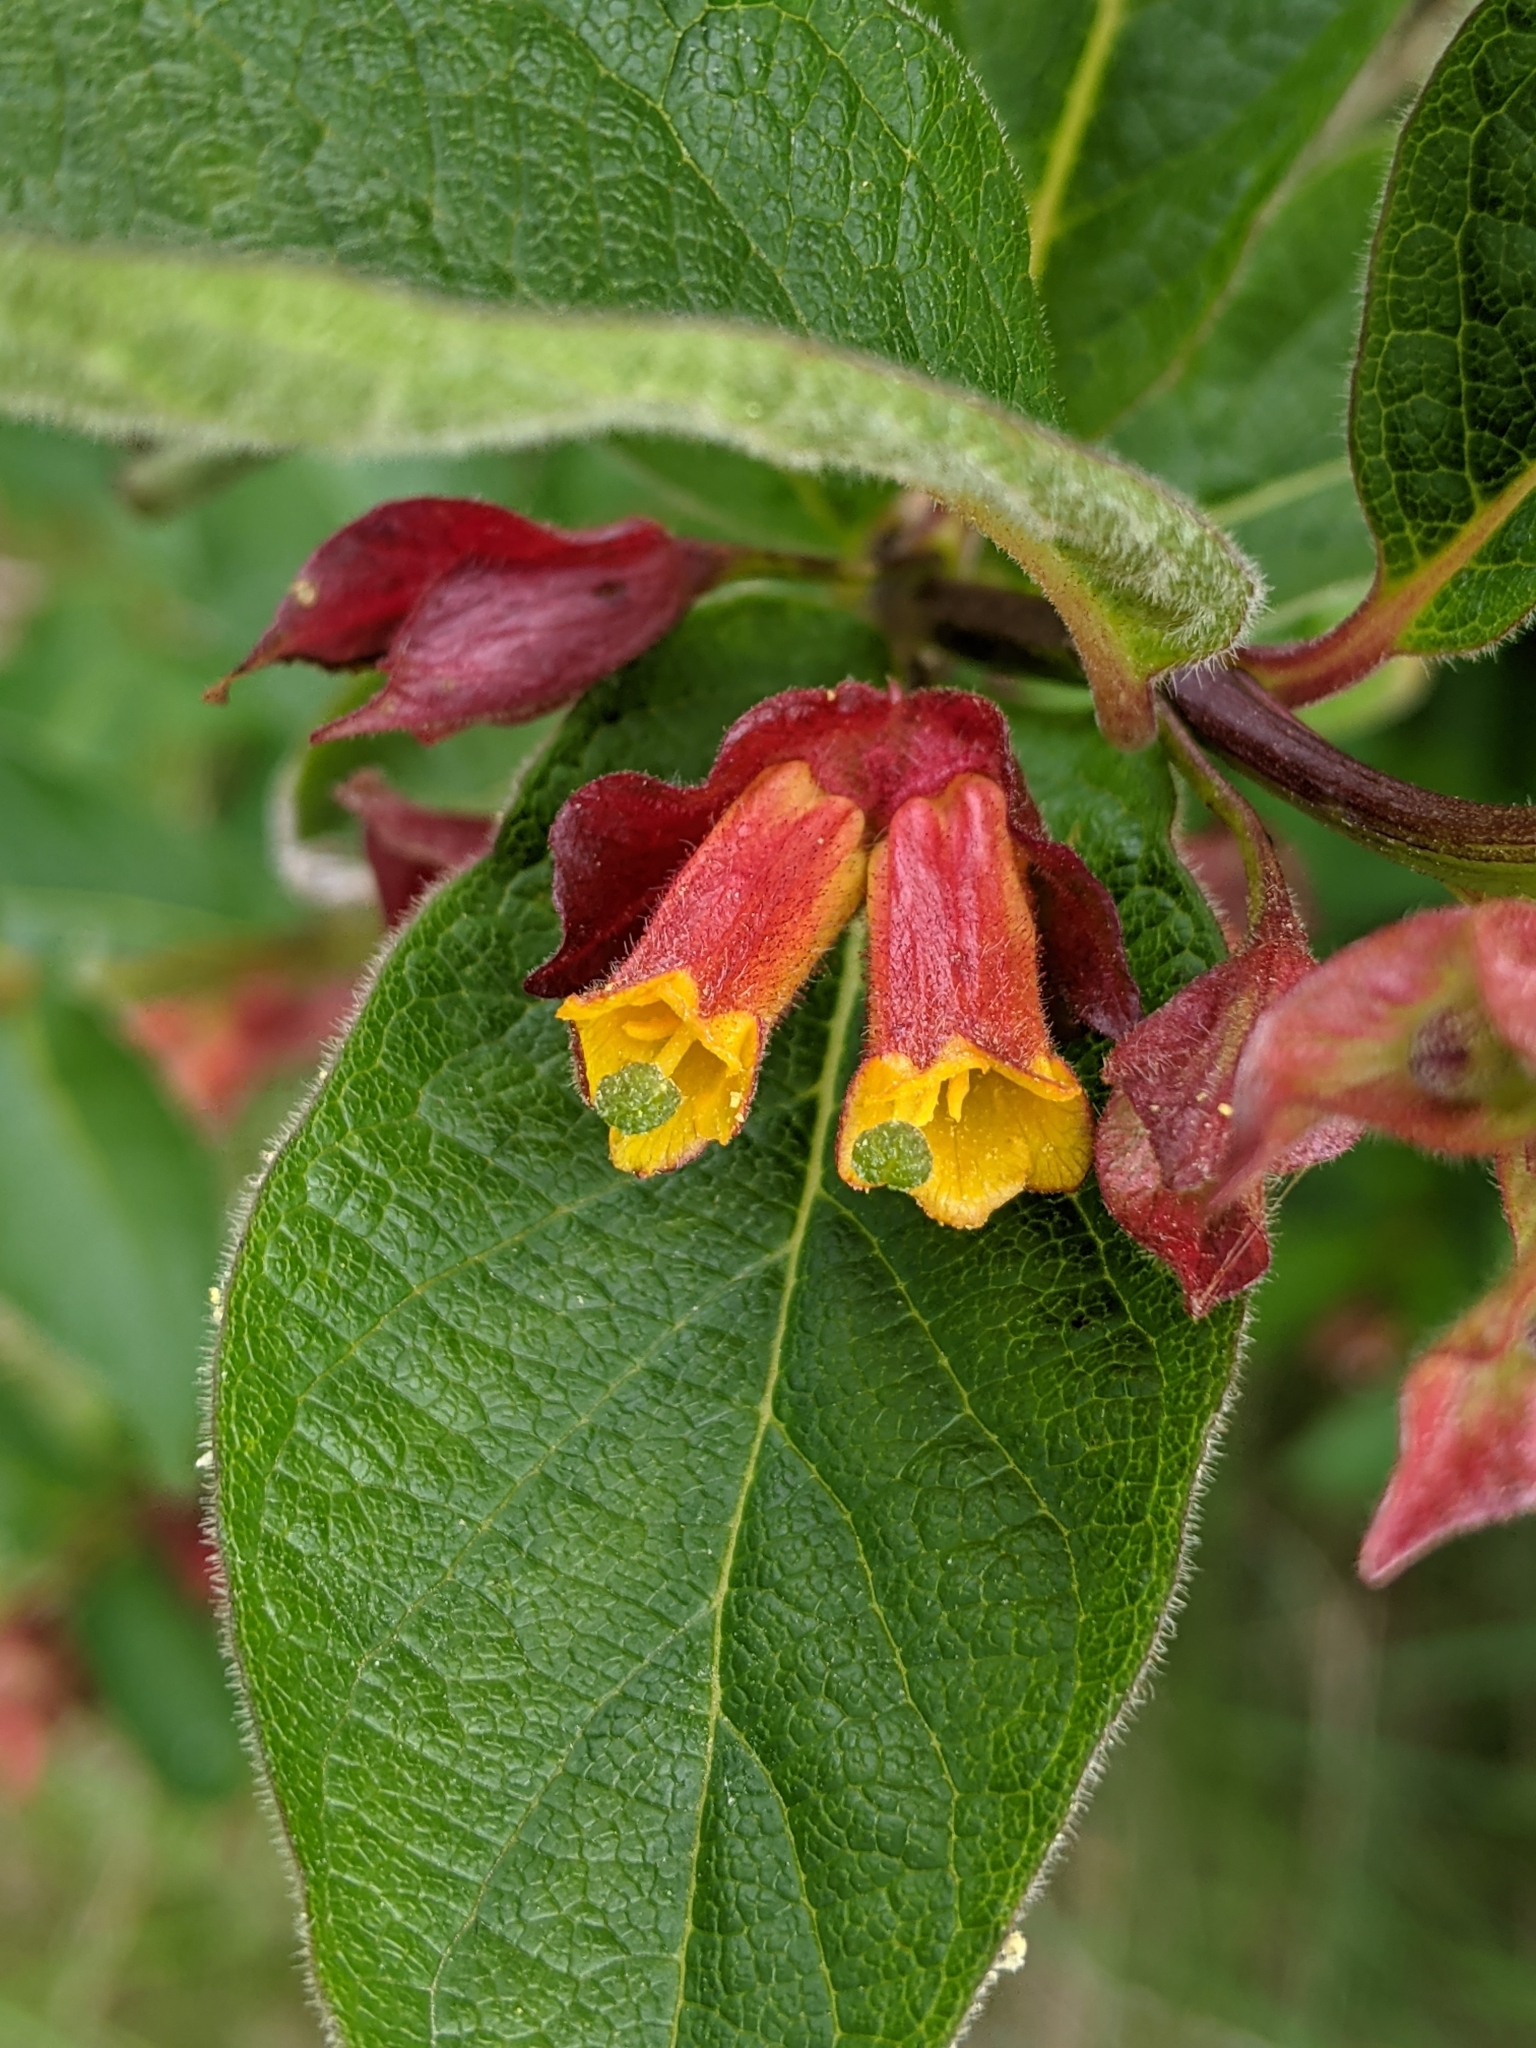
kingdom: Plantae
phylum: Tracheophyta
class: Magnoliopsida
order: Dipsacales
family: Caprifoliaceae
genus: Lonicera
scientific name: Lonicera involucrata
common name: Californian honeysuckle
